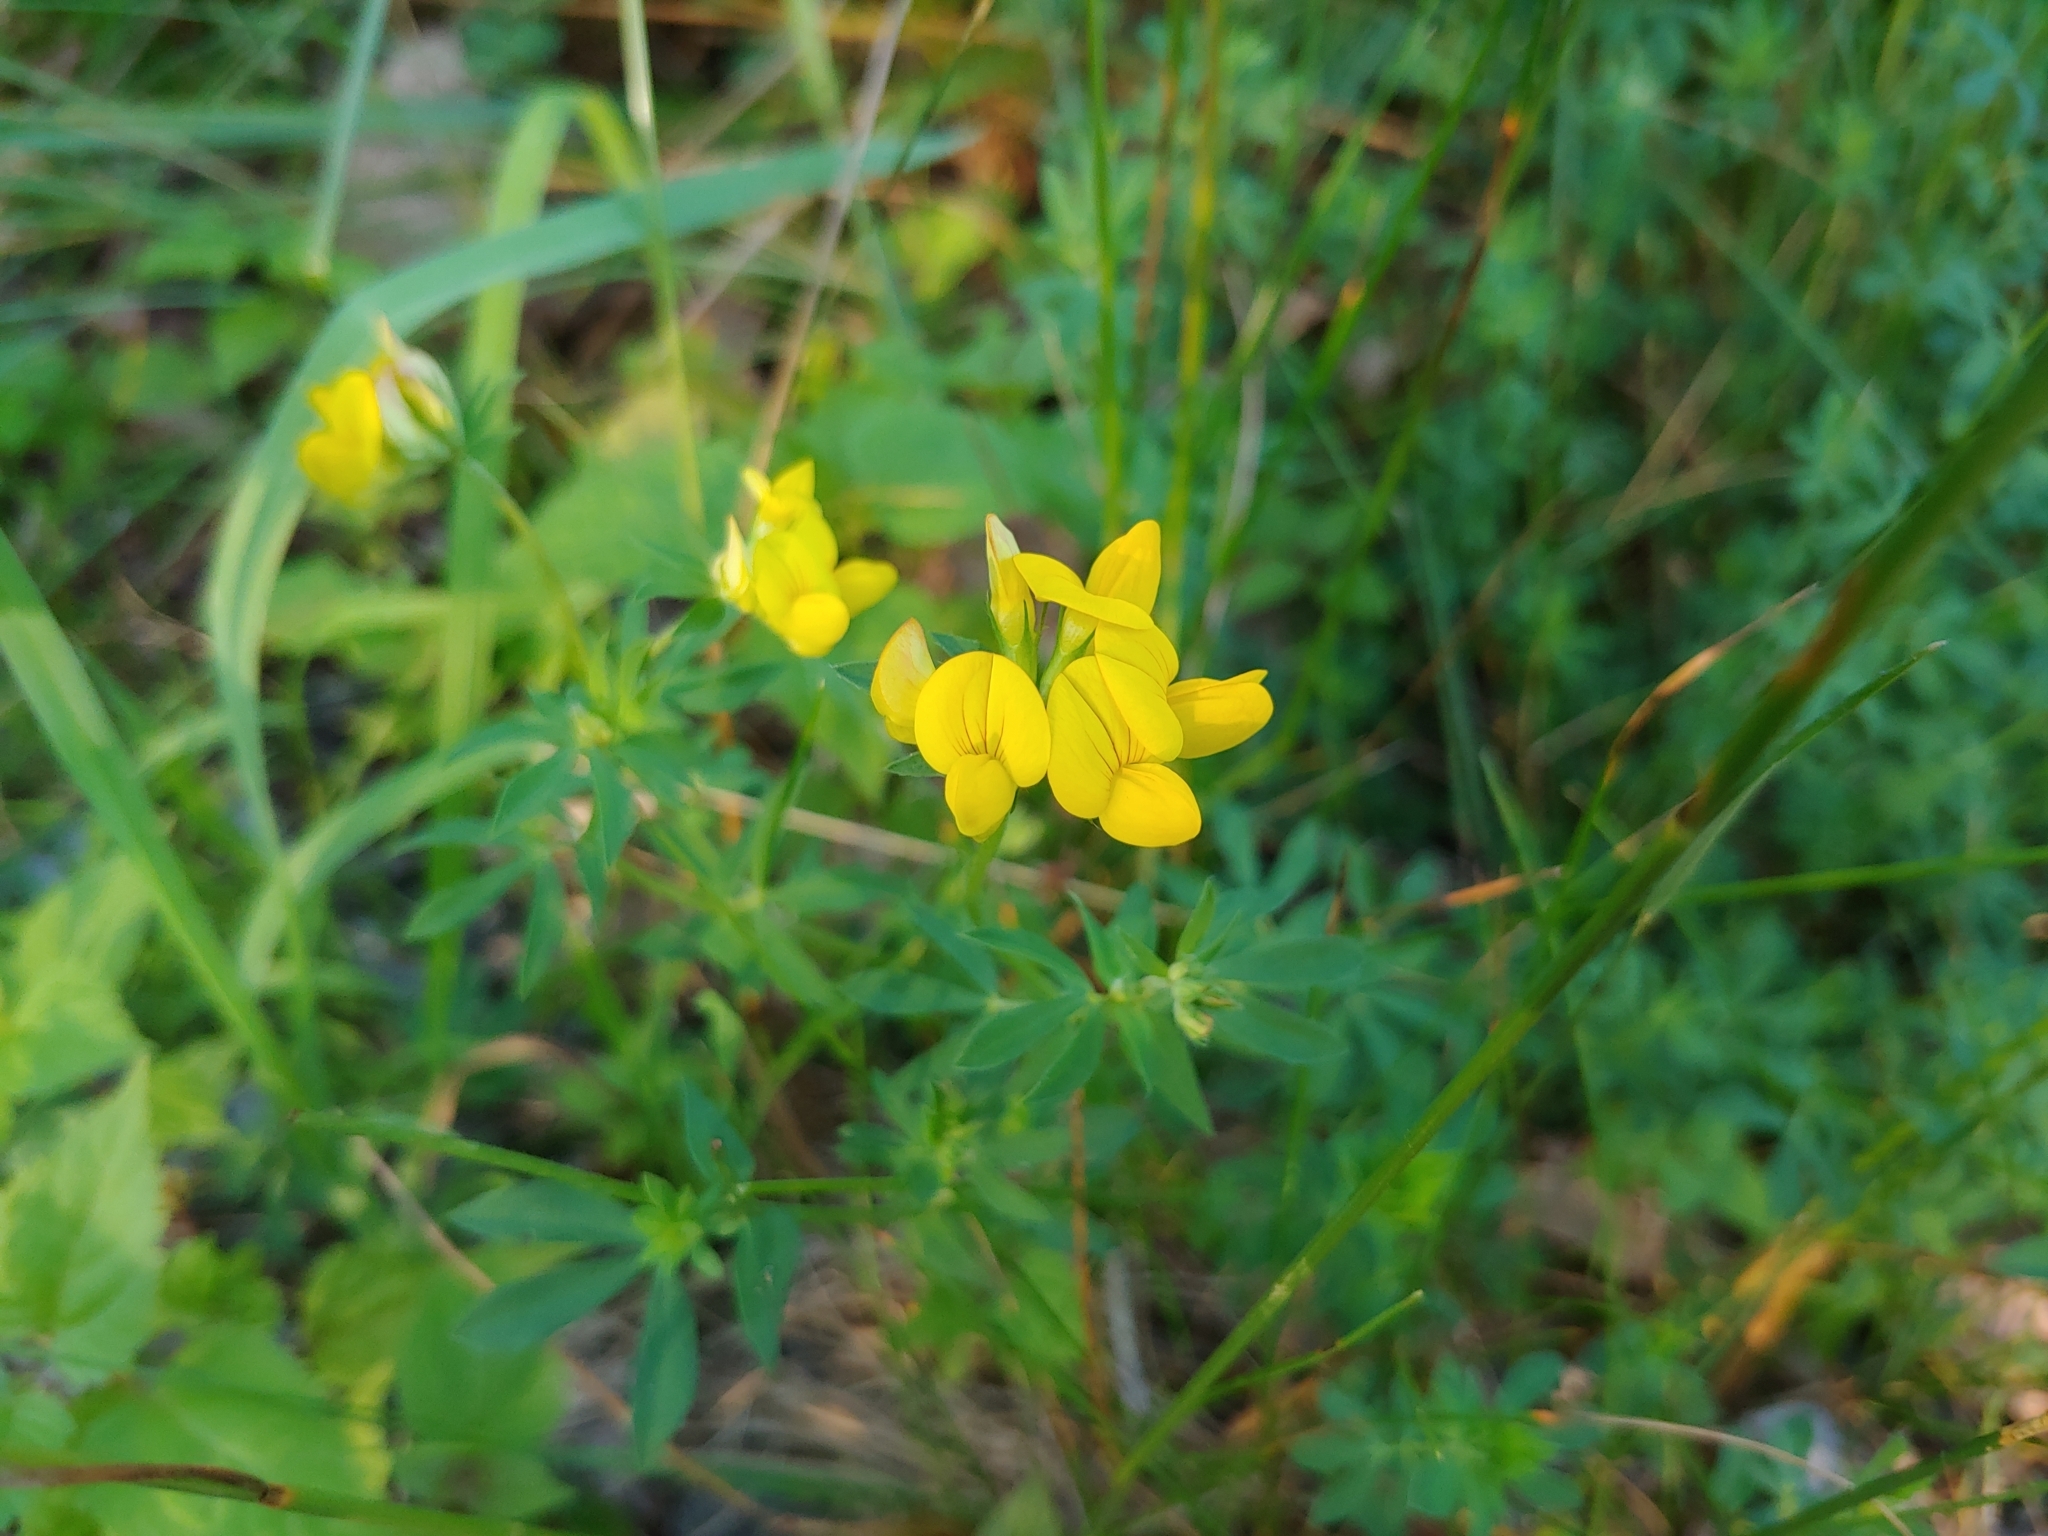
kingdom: Plantae
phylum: Tracheophyta
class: Magnoliopsida
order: Fabales
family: Fabaceae
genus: Lotus
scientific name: Lotus corniculatus
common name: Common bird's-foot-trefoil
